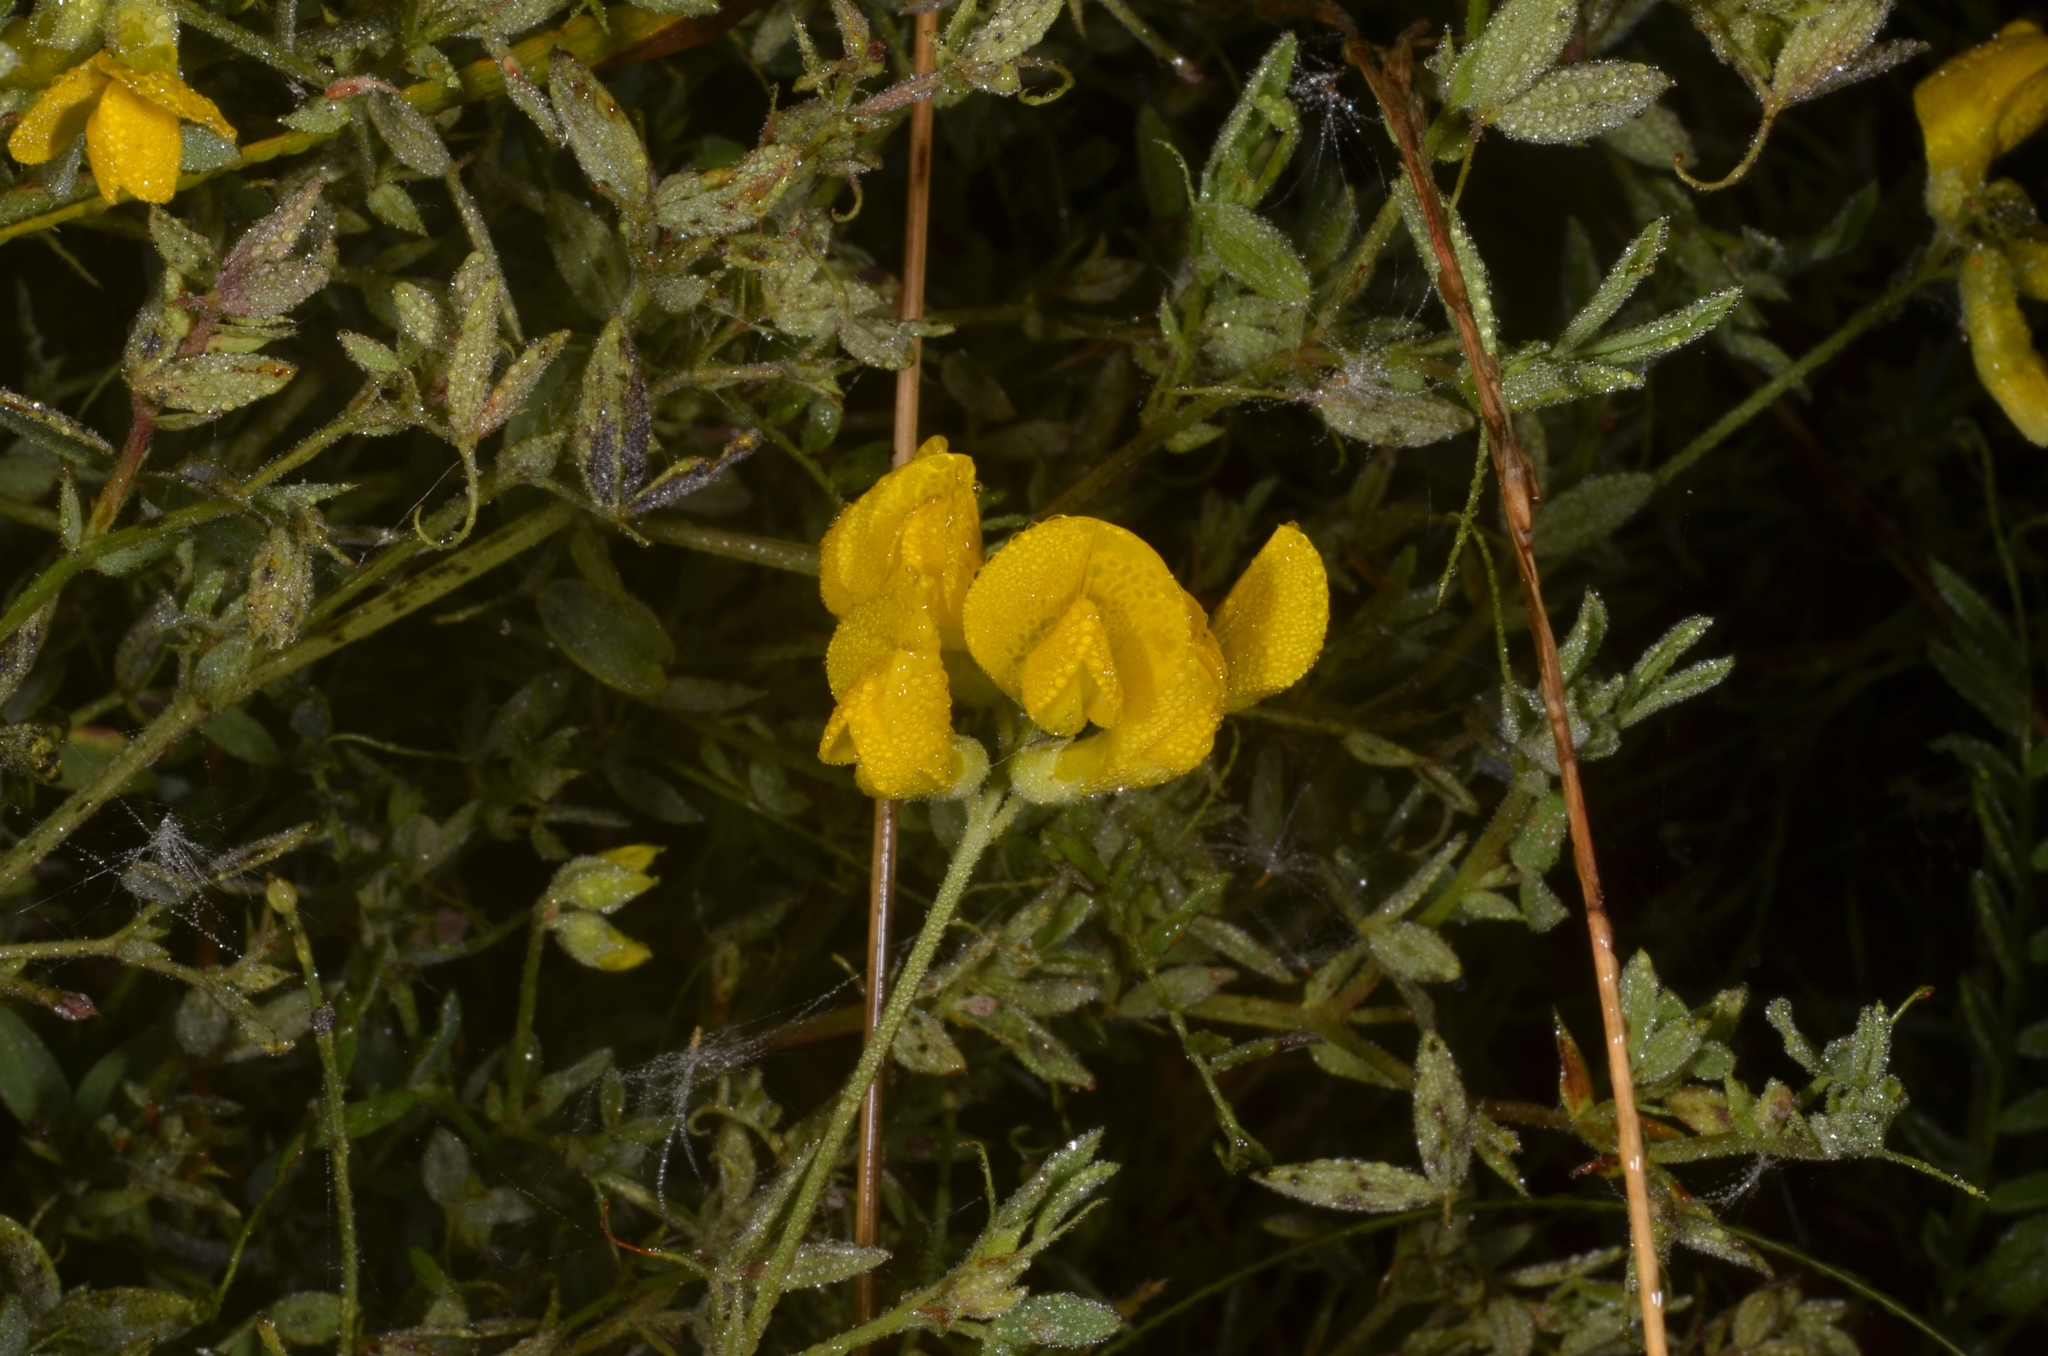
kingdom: Plantae
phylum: Tracheophyta
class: Magnoliopsida
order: Fabales
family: Fabaceae
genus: Lathyrus
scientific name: Lathyrus pratensis
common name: Meadow vetchling
